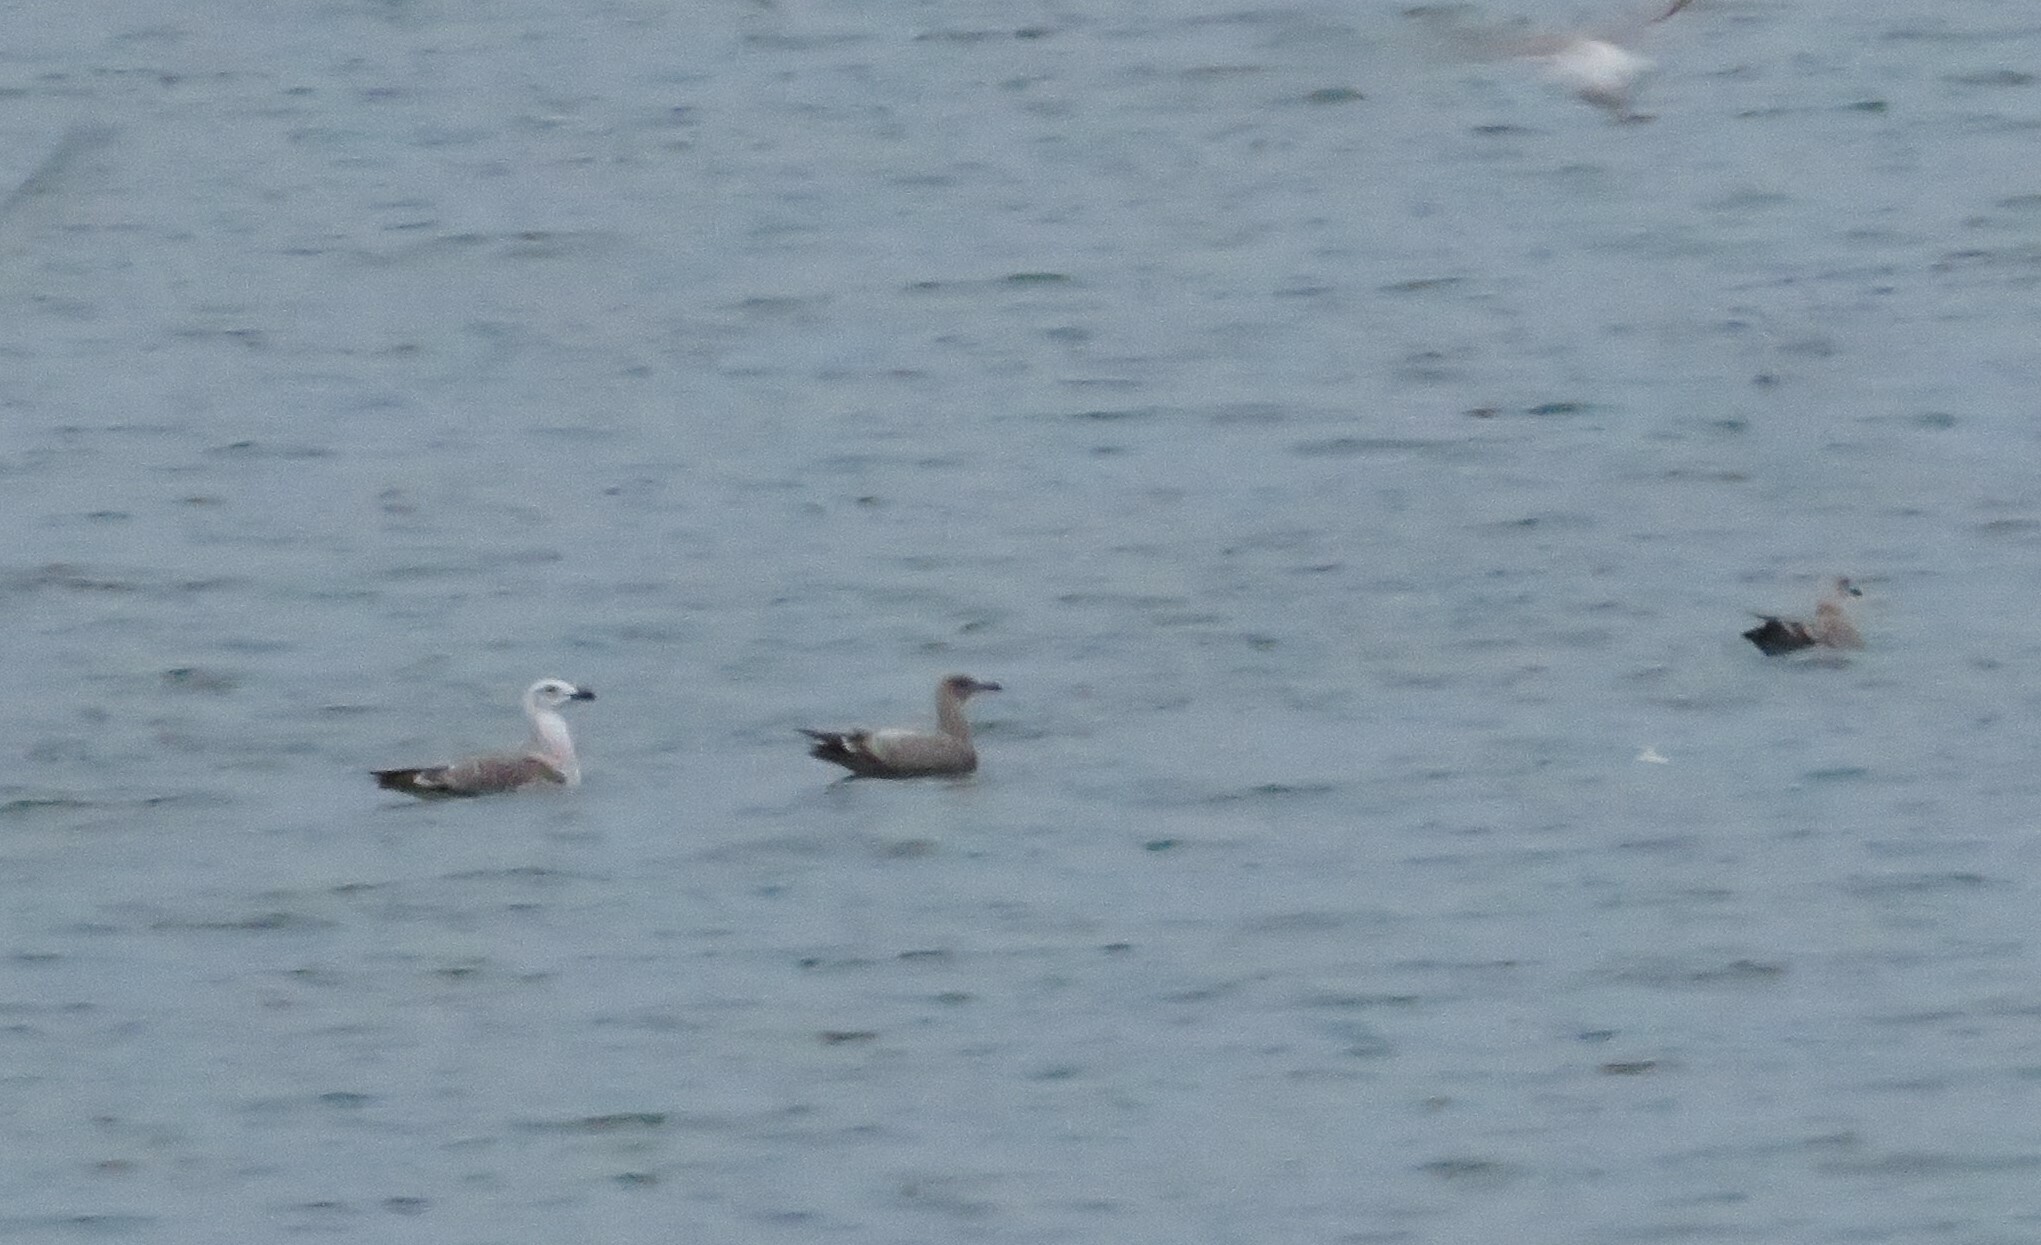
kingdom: Animalia
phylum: Chordata
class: Aves
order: Charadriiformes
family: Laridae
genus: Larus
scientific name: Larus marinus
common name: Great black-backed gull
